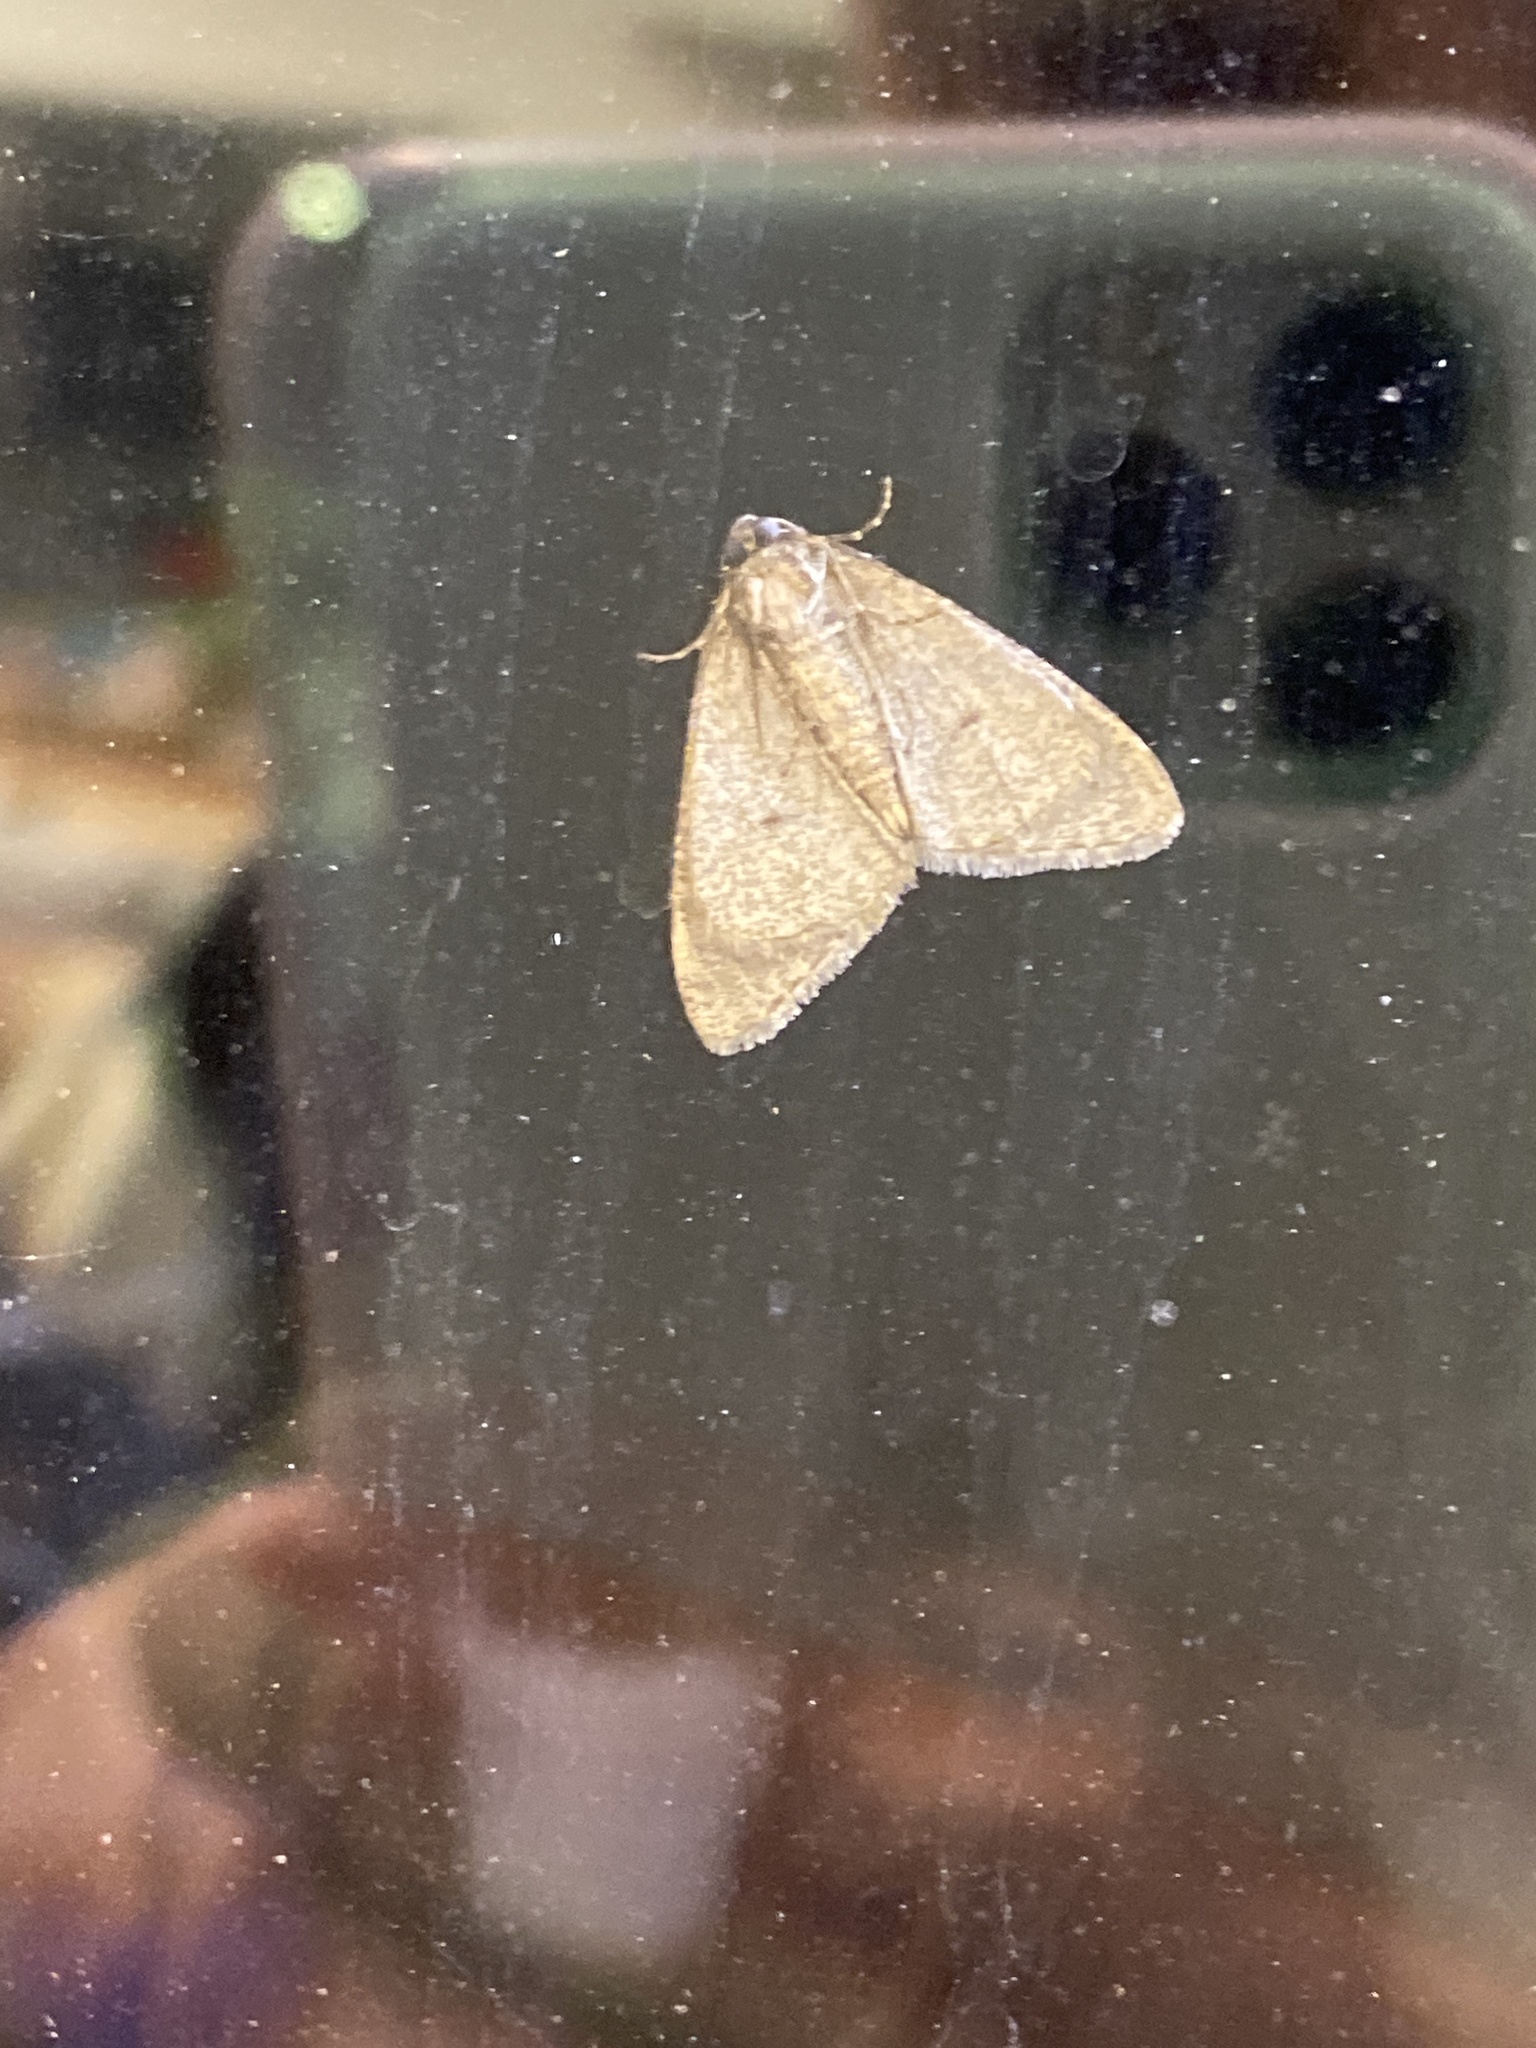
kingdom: Animalia
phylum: Arthropoda
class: Insecta
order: Lepidoptera
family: Geometridae
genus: Phigalia
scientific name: Phigalia strigataria
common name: Small phigalia
